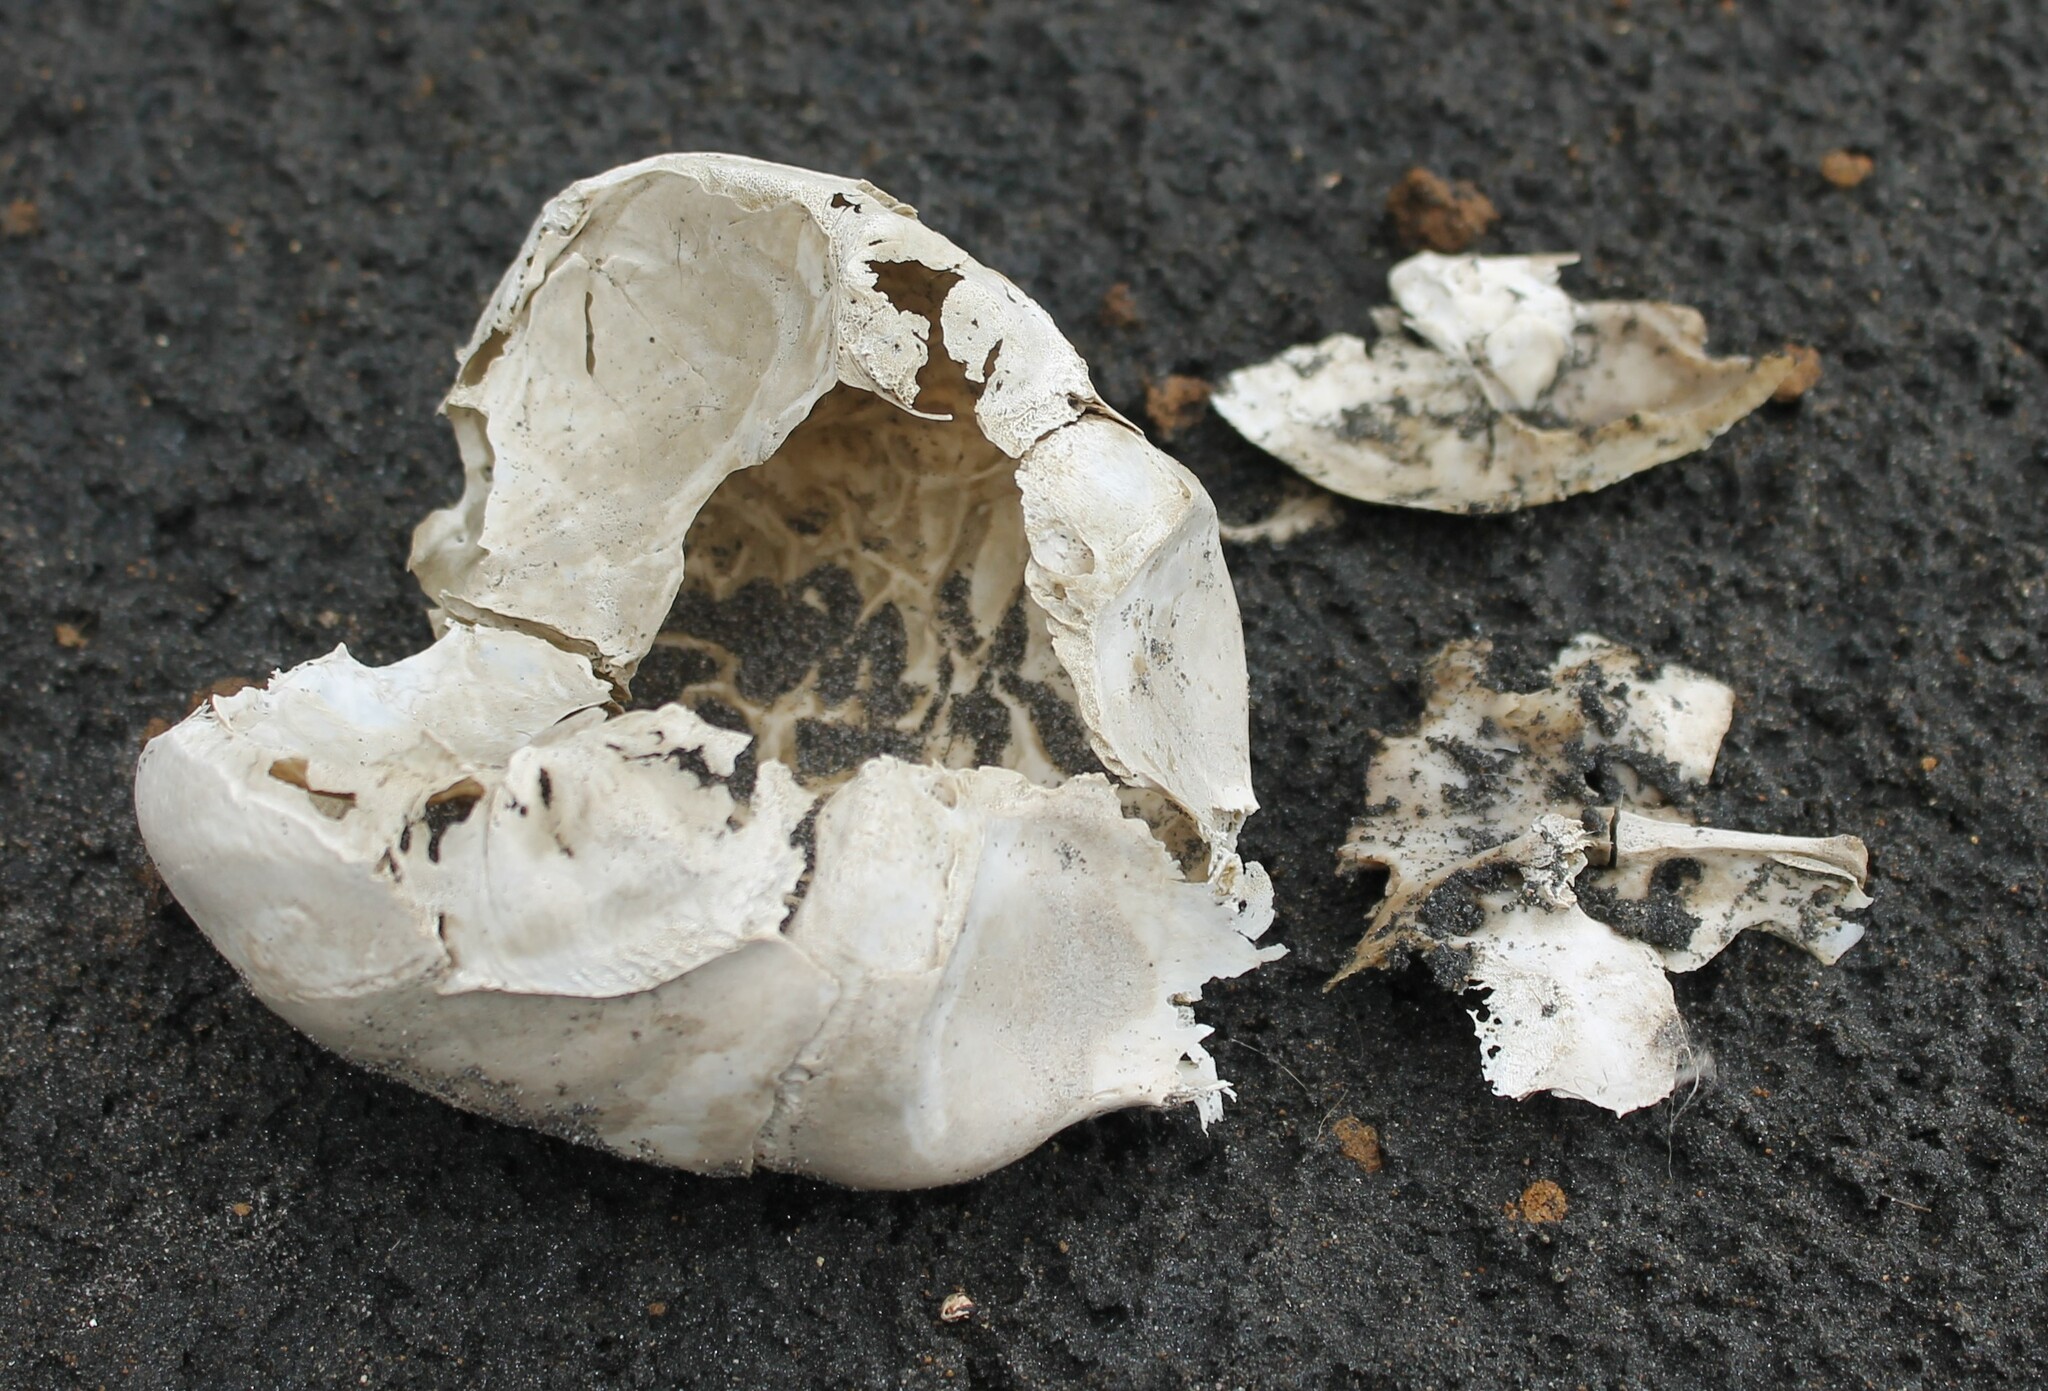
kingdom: Animalia
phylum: Chordata
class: Mammalia
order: Carnivora
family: Otariidae
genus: Arctocephalus
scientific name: Arctocephalus forsteri
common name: New zealand fur seal
